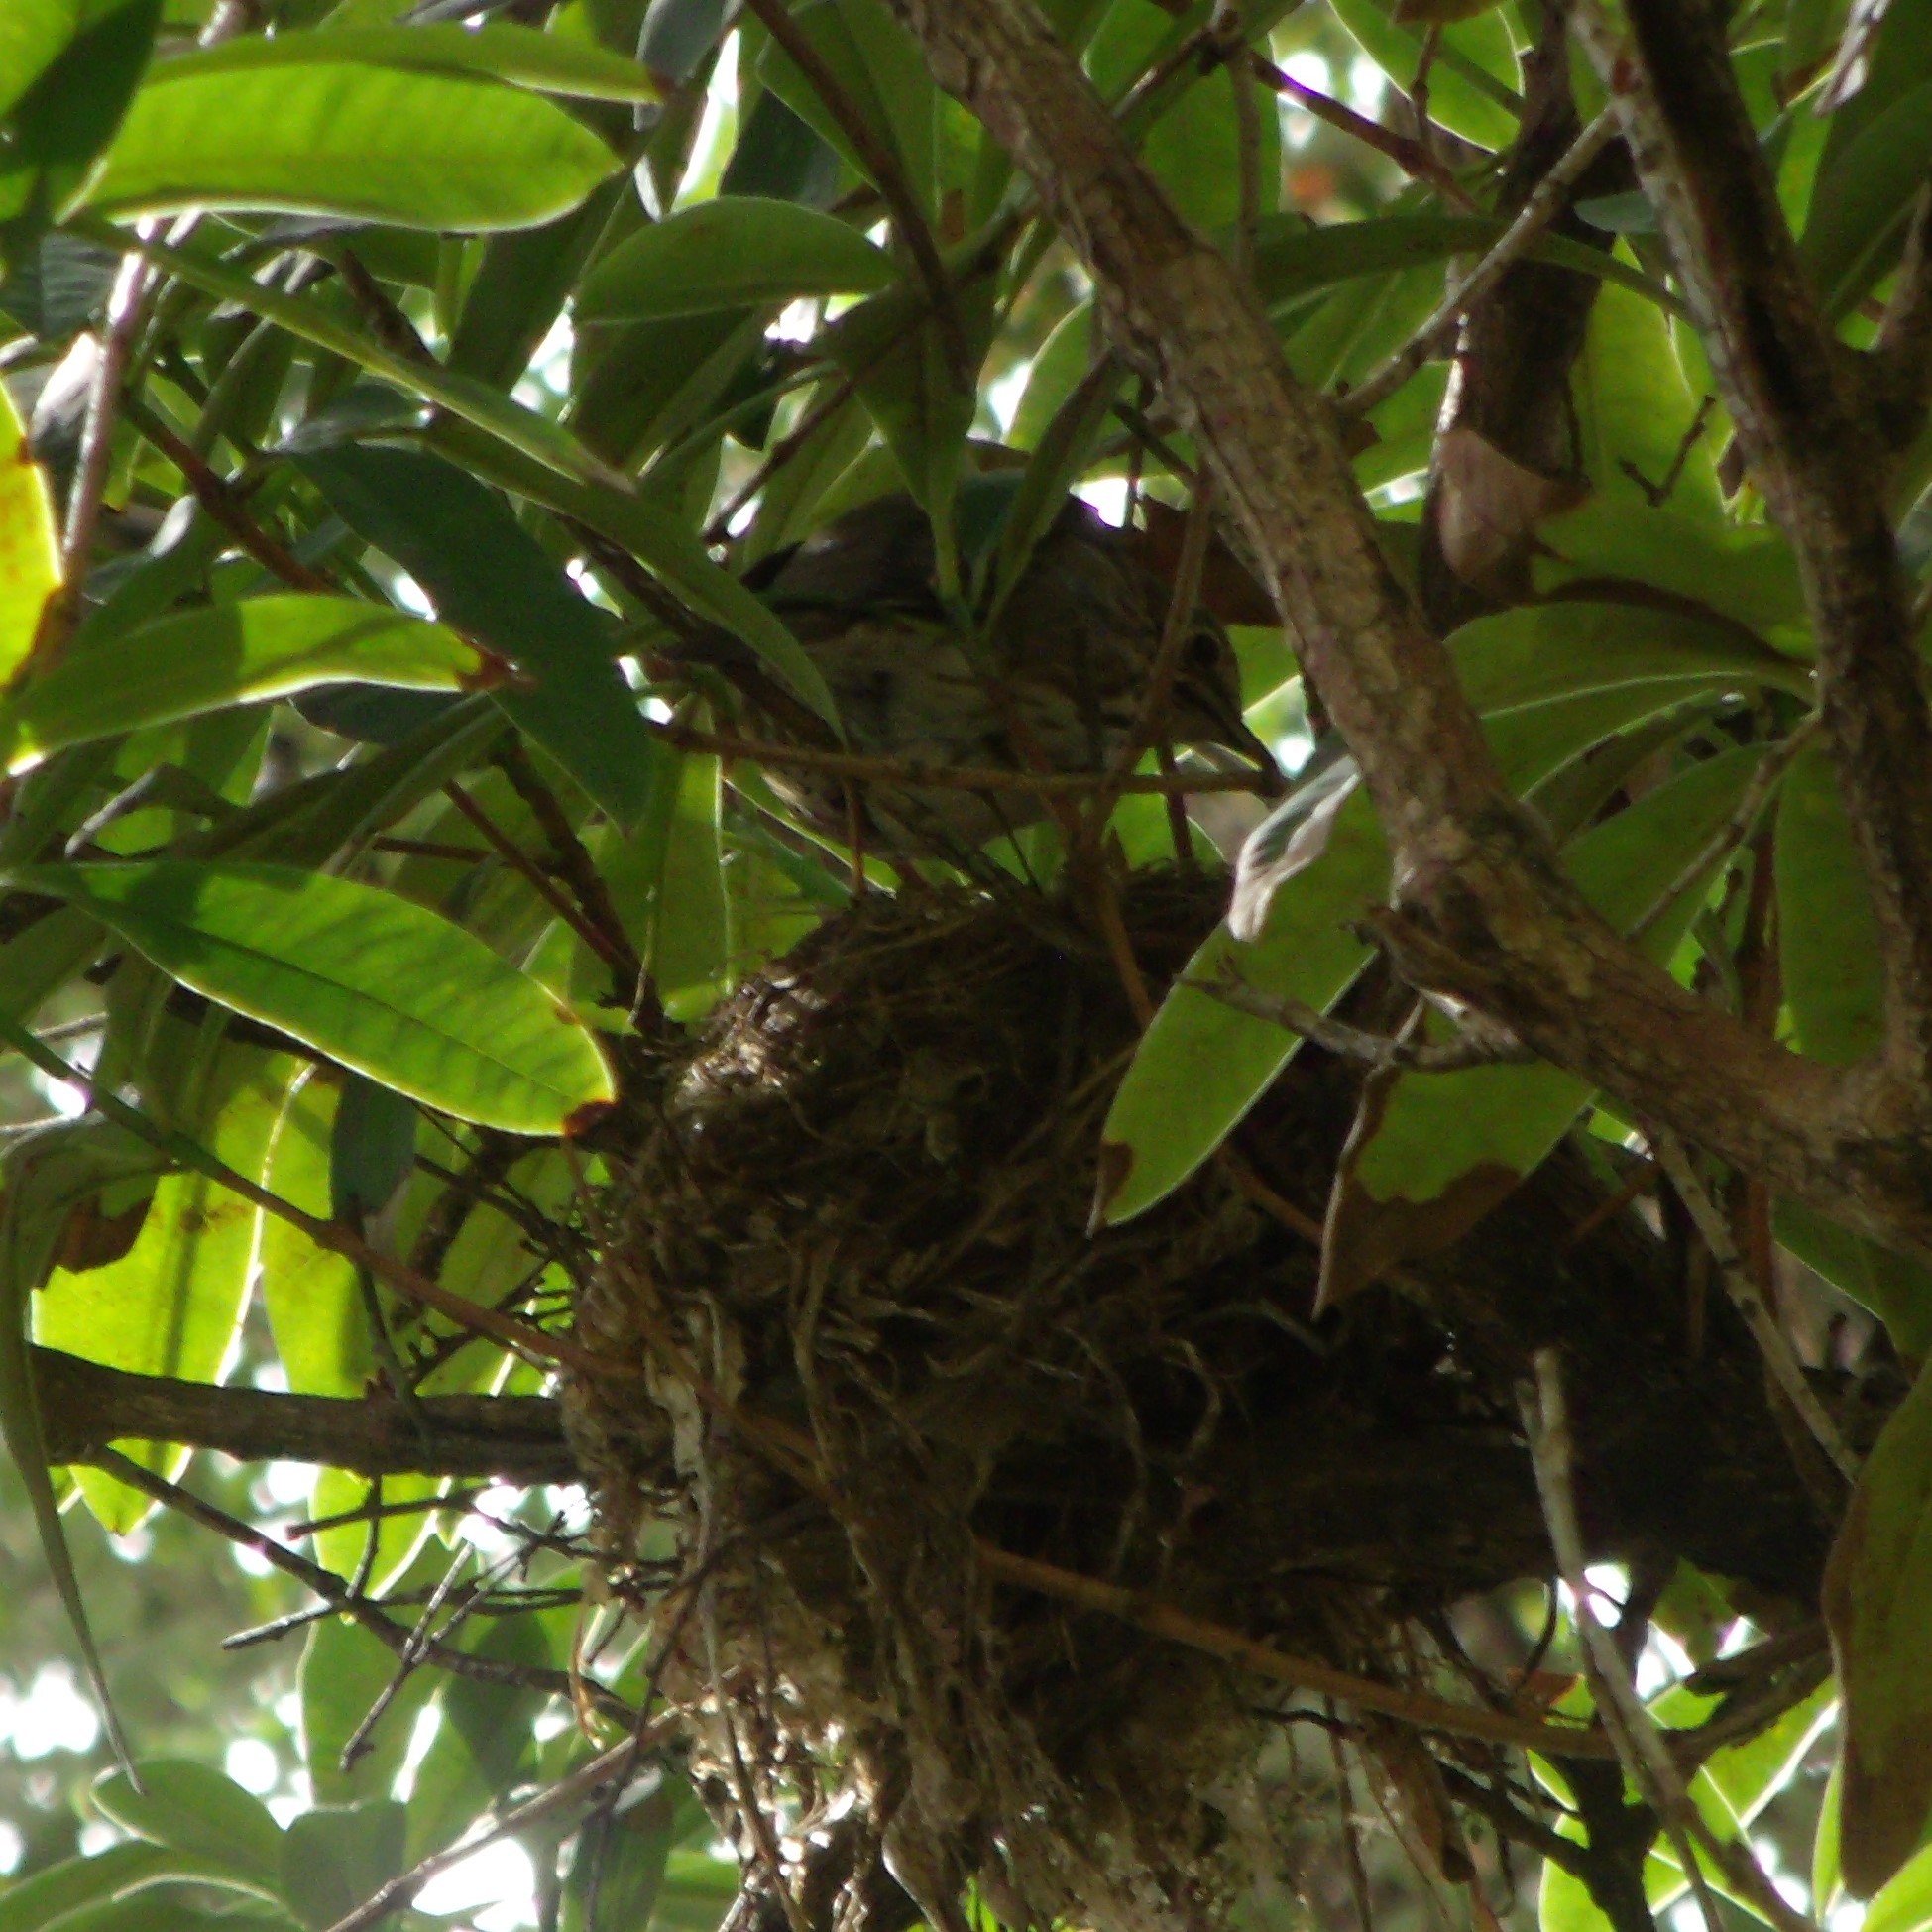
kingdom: Animalia
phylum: Chordata
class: Aves
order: Passeriformes
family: Turdidae
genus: Turdus
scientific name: Turdus philomelos
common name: Song thrush
